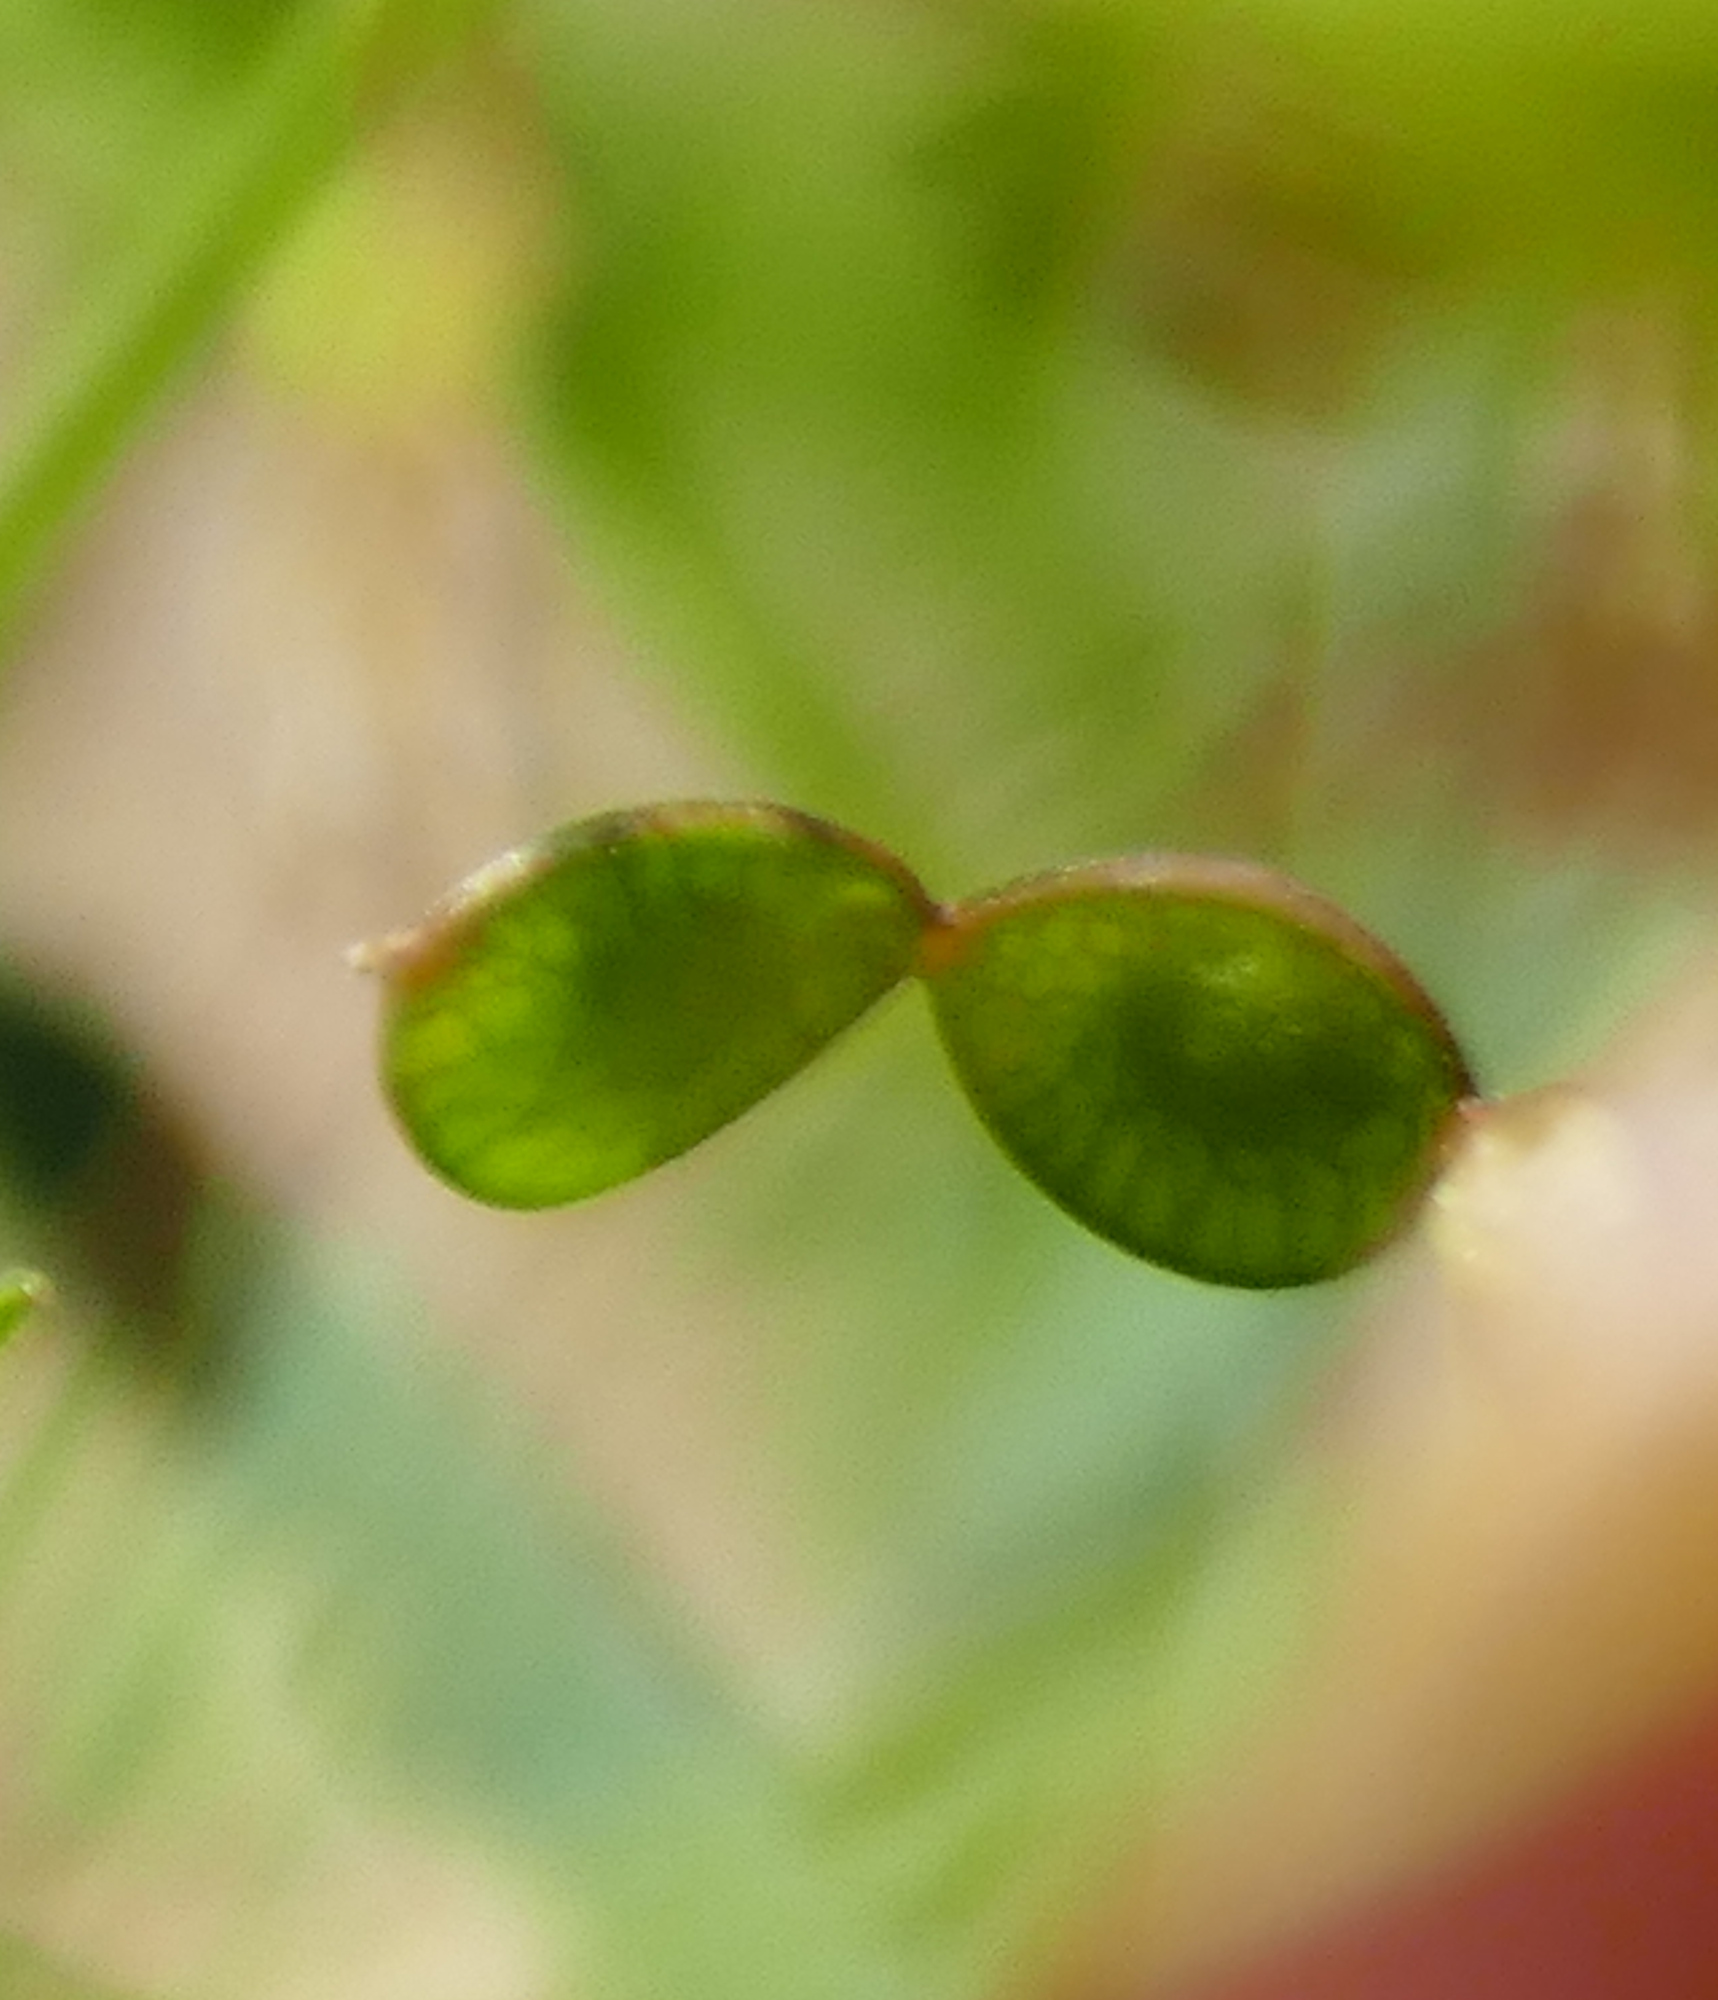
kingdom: Plantae
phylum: Tracheophyta
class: Magnoliopsida
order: Fabales
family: Fabaceae
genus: Desmodium
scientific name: Desmodium rosei
